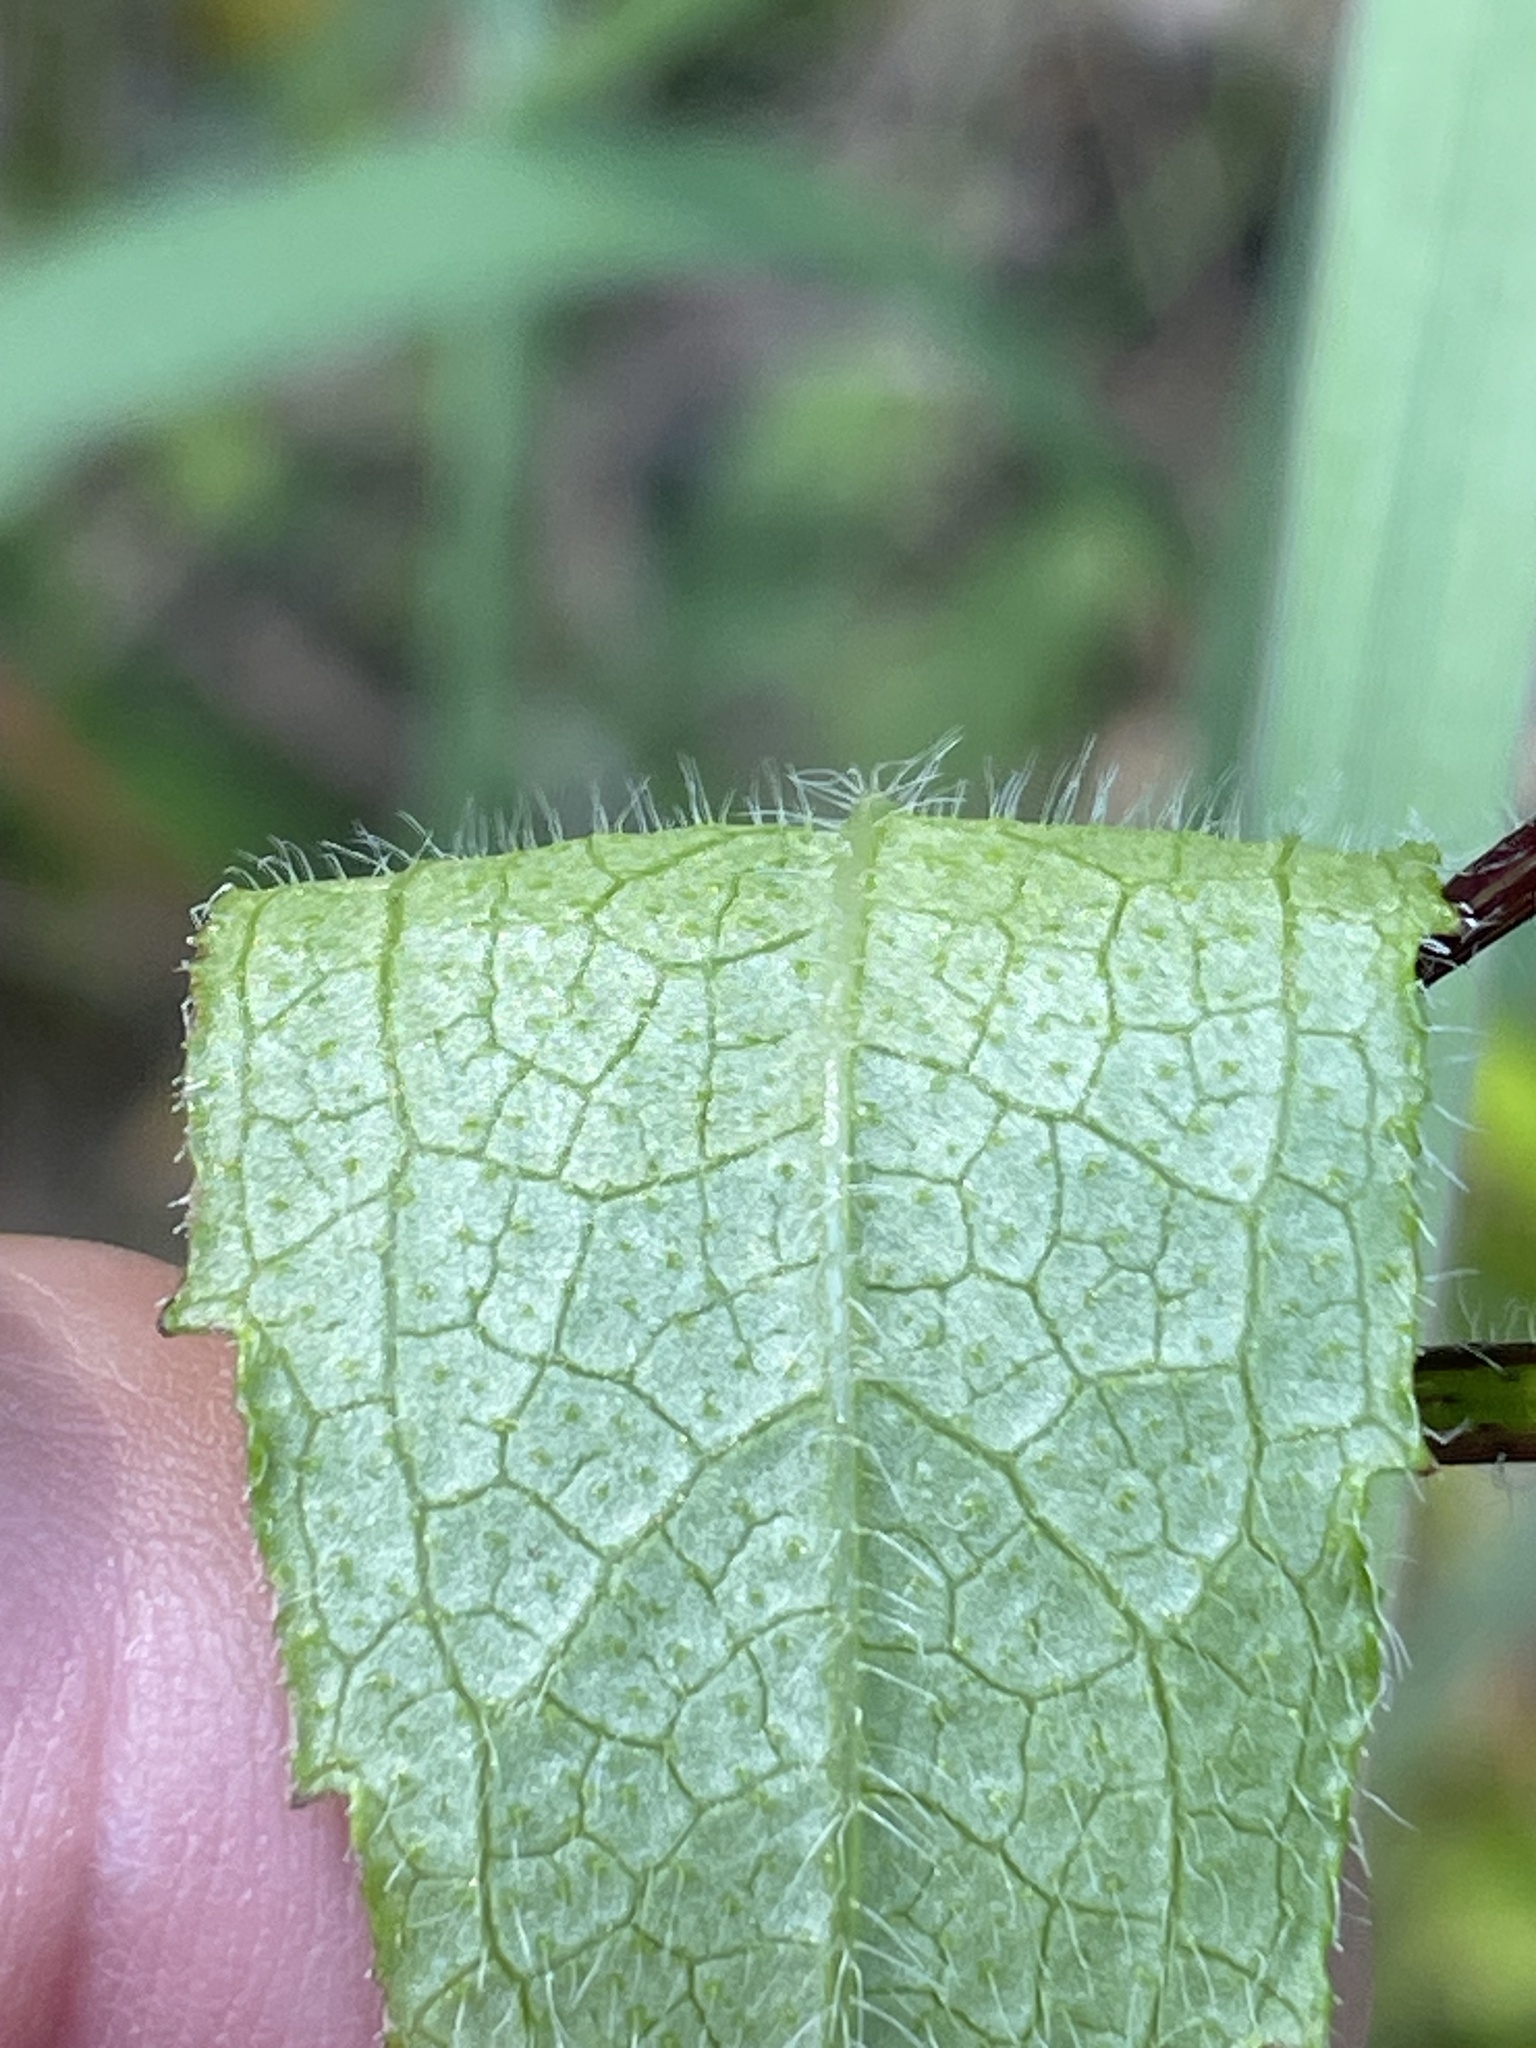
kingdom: Plantae
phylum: Tracheophyta
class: Magnoliopsida
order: Asterales
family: Asteraceae
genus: Rudbeckia
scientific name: Rudbeckia hirta
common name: Black-eyed-susan
